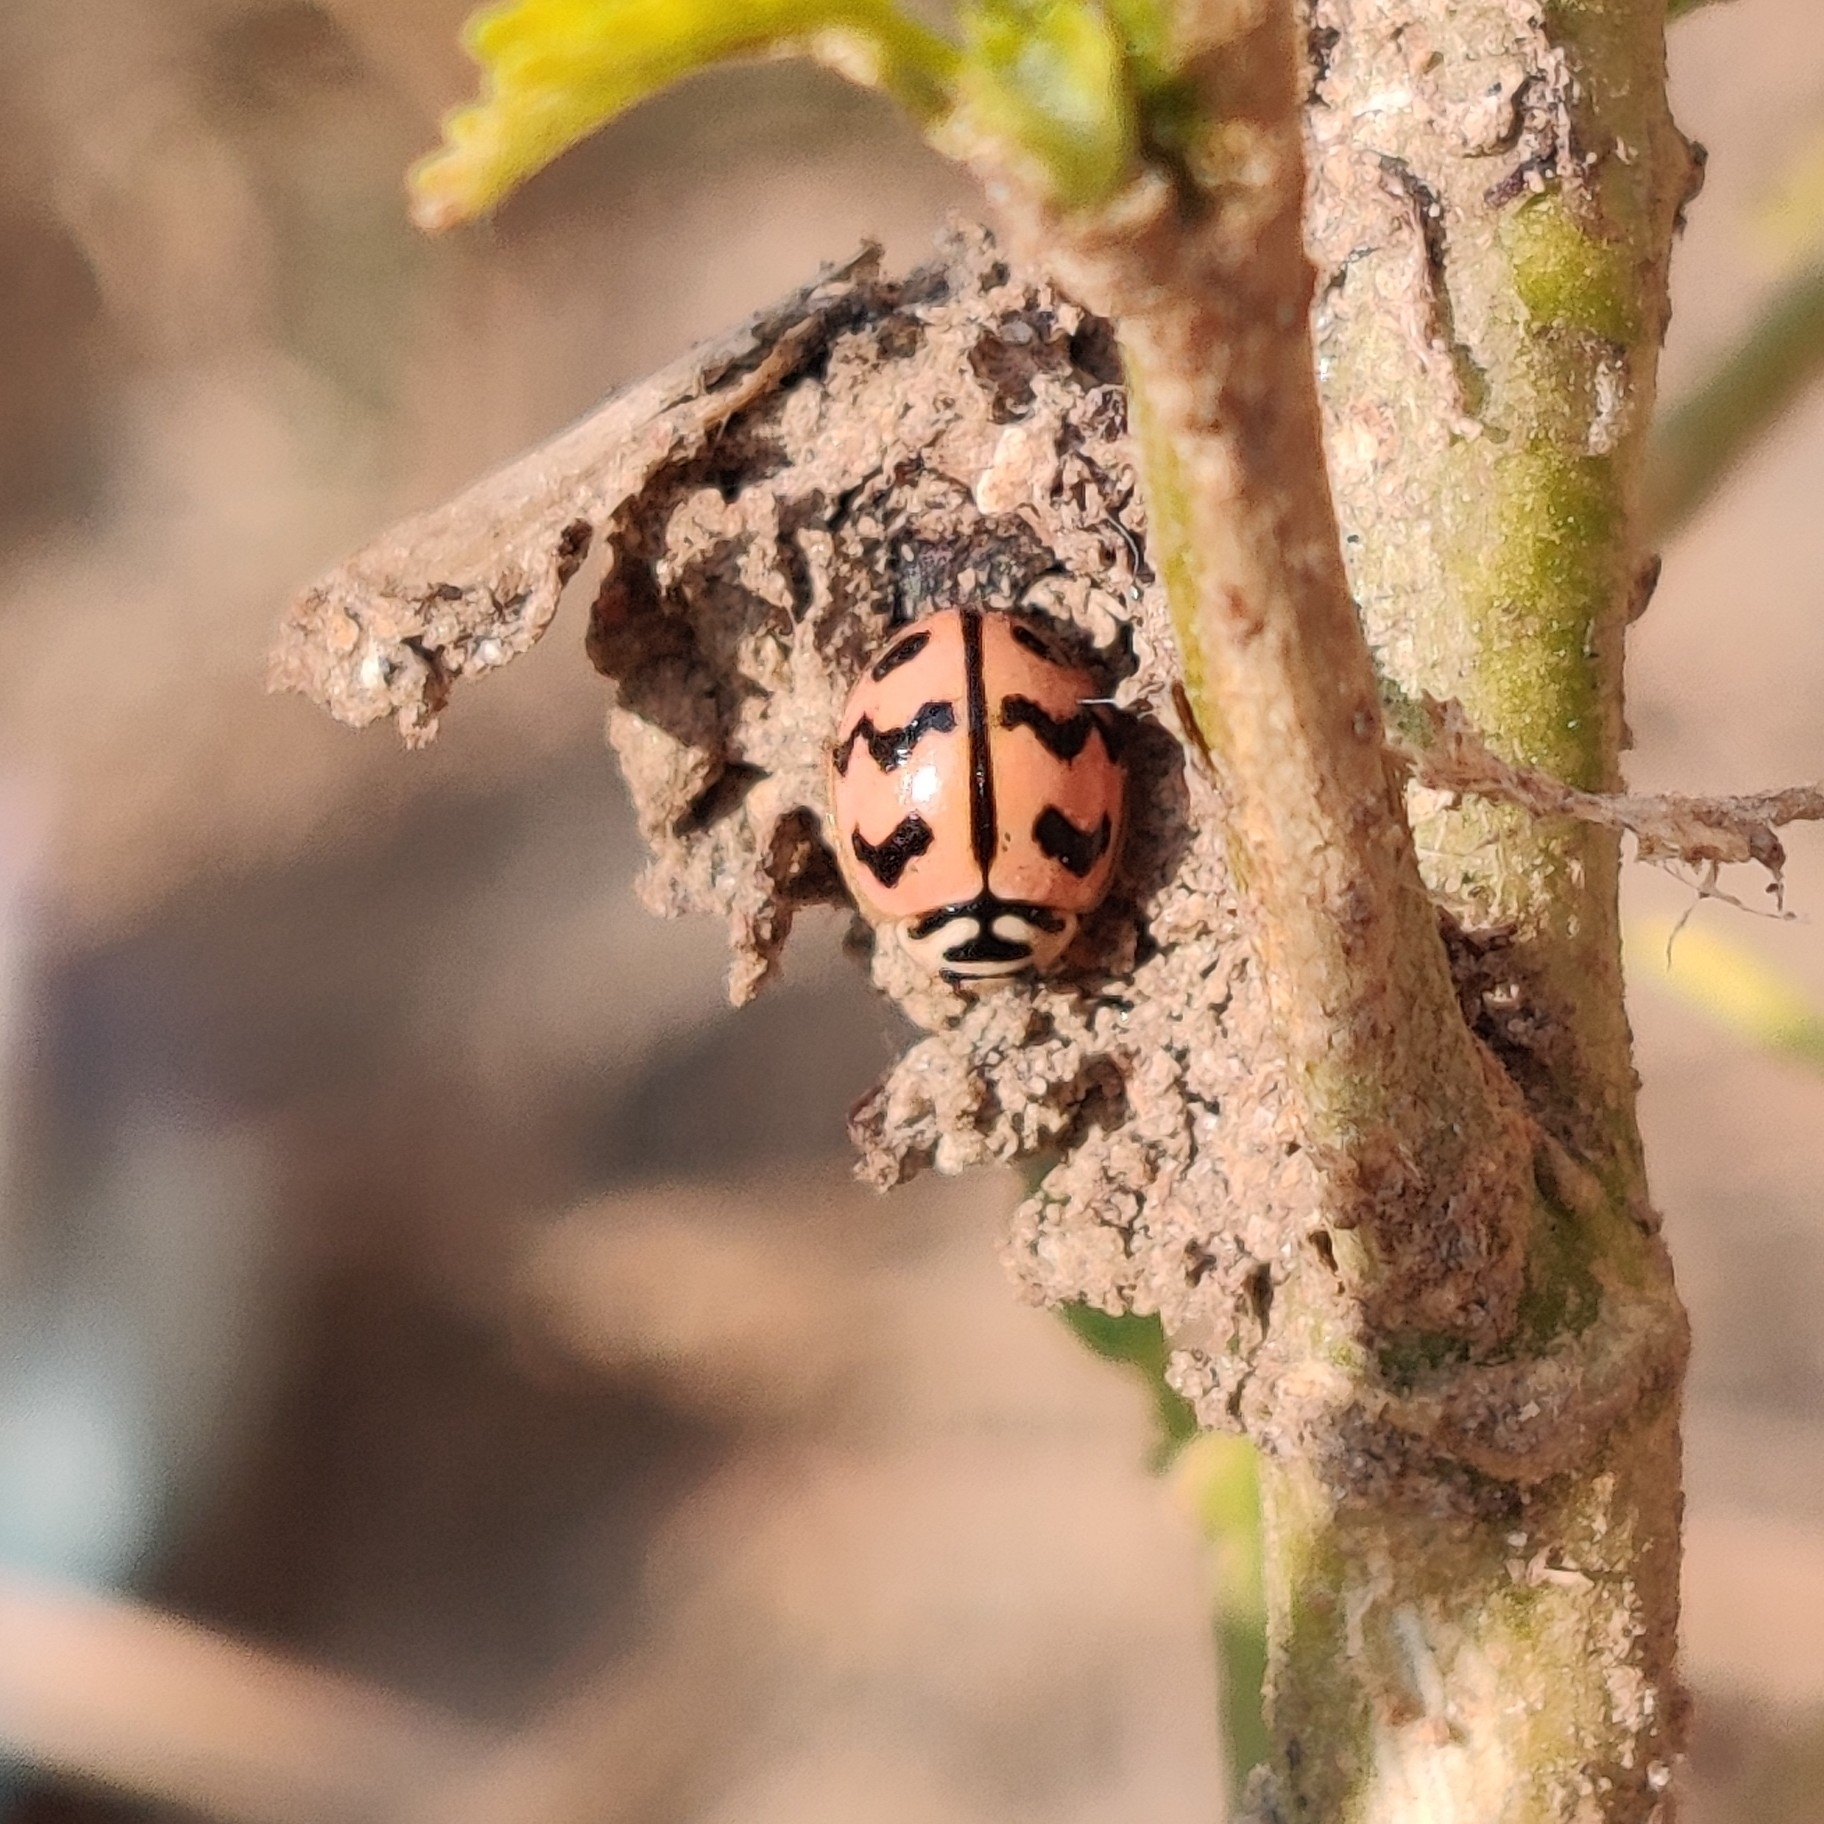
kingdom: Animalia
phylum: Arthropoda
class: Insecta
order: Coleoptera
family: Coccinellidae
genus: Cheilomenes
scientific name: Cheilomenes sexmaculata
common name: Ladybird beetle
